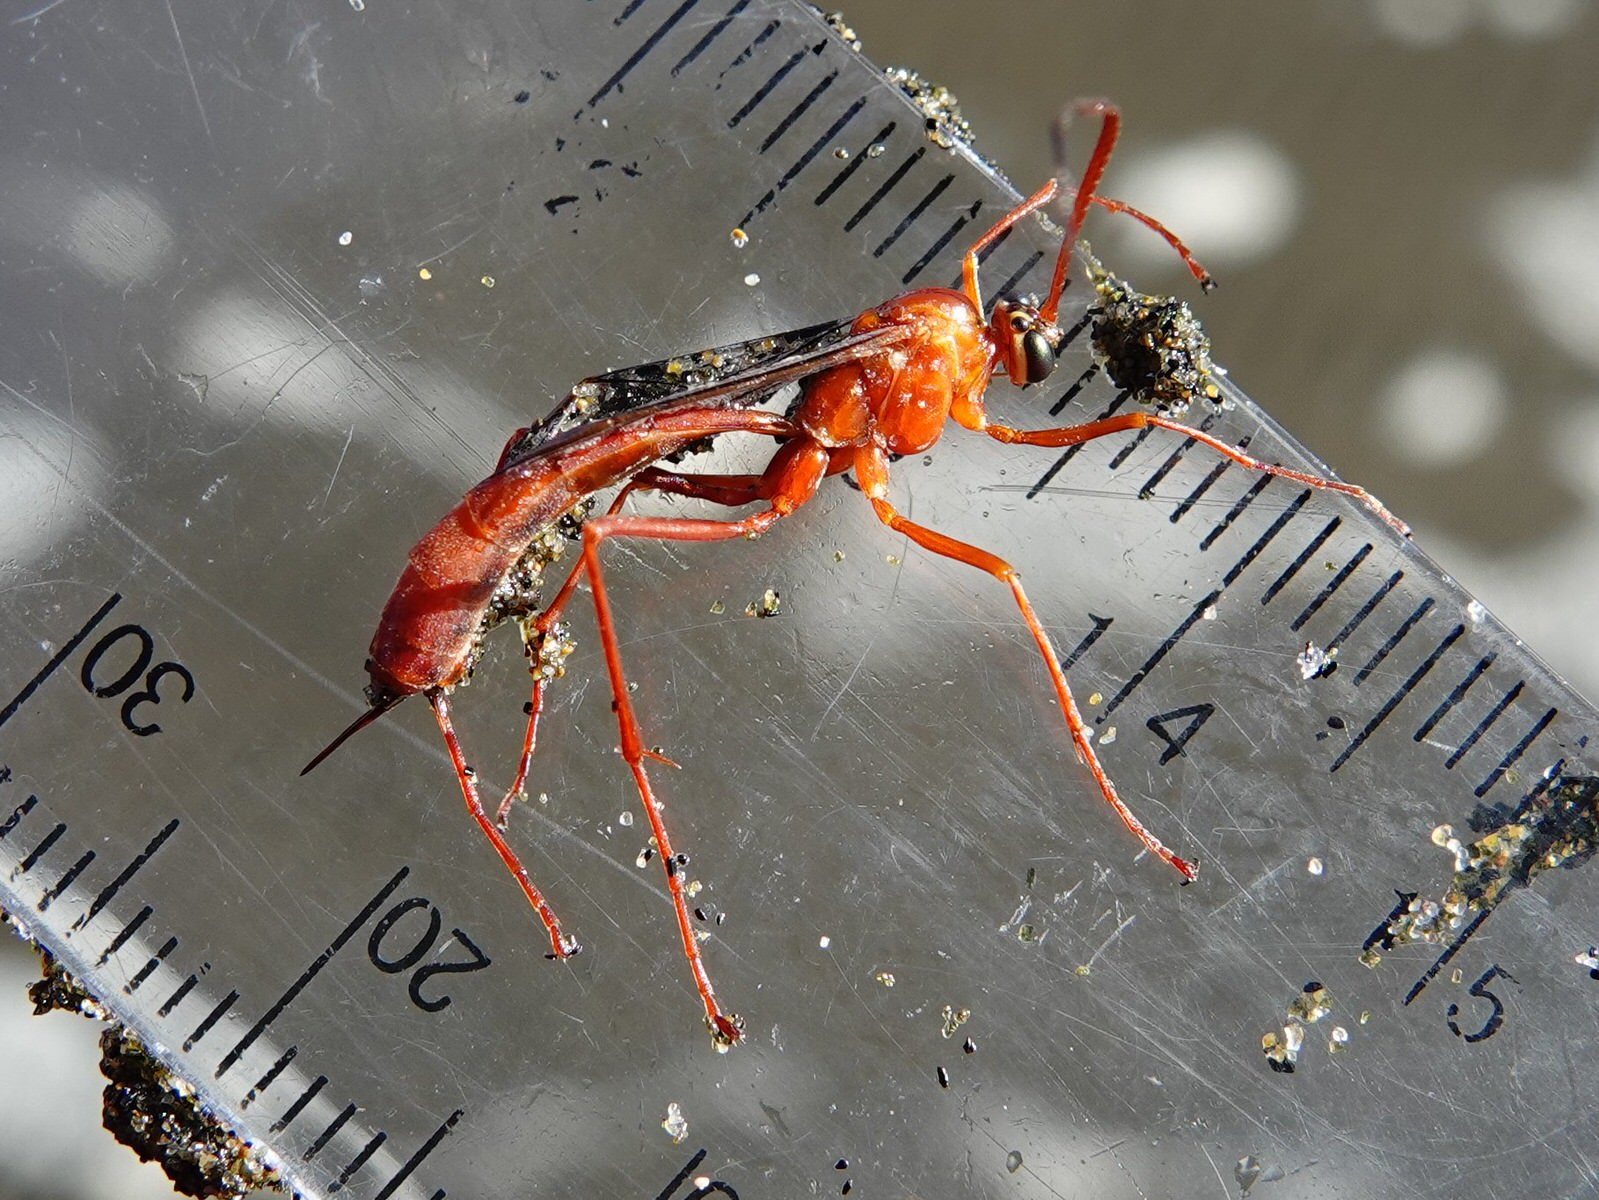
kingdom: Animalia
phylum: Arthropoda
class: Insecta
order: Hymenoptera
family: Ichneumonidae
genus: Netelia
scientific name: Netelia producta
